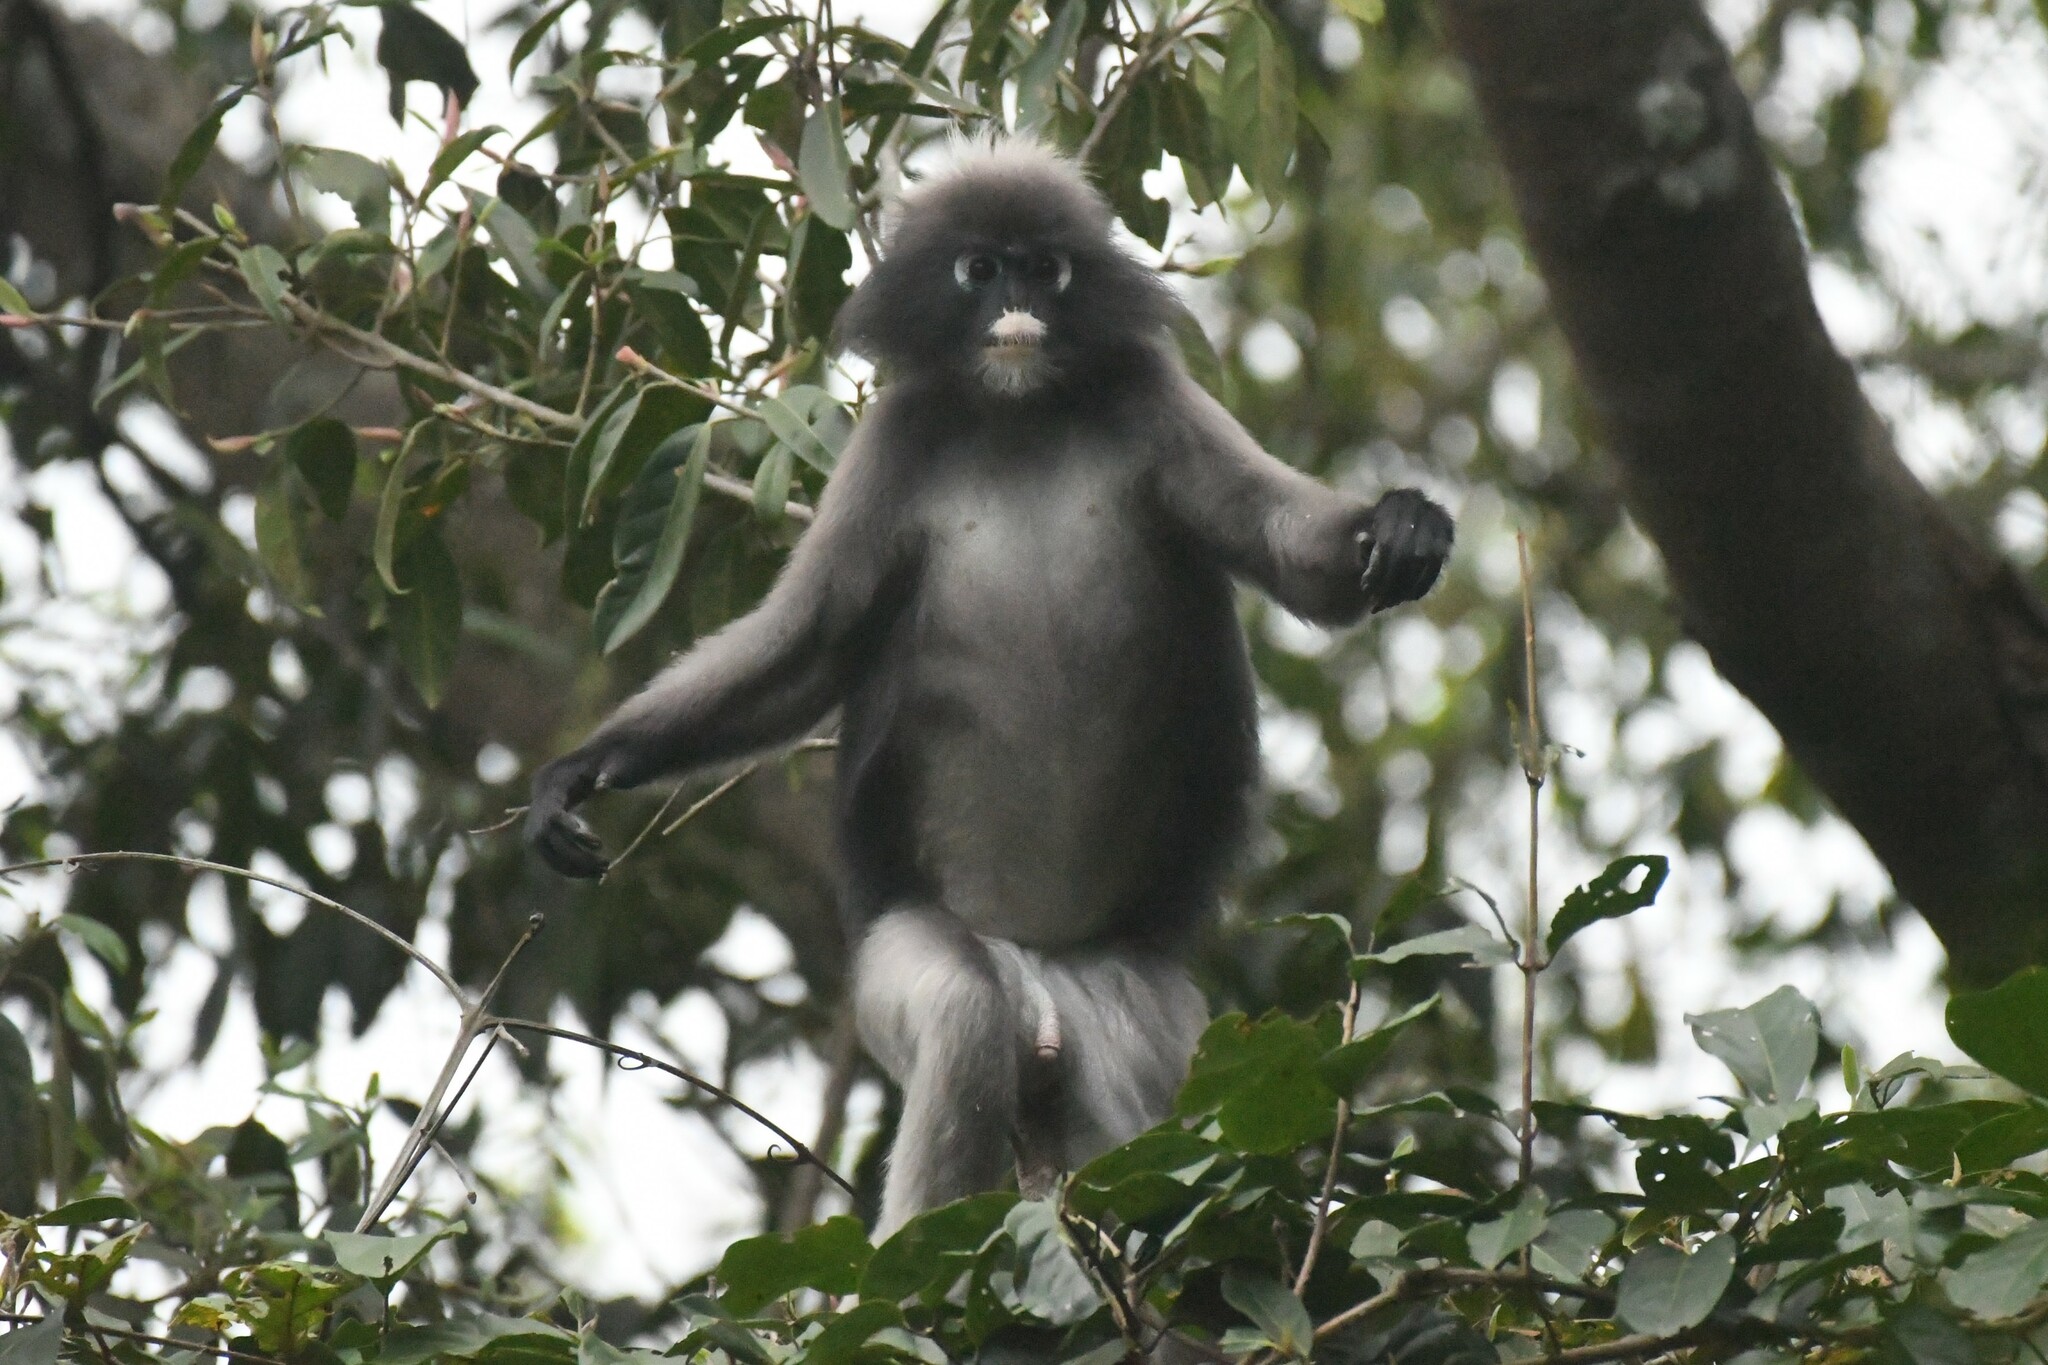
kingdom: Animalia
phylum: Chordata
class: Mammalia
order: Primates
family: Cercopithecidae
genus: Trachypithecus
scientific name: Trachypithecus obscurus
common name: Dusky leaf-monkey
